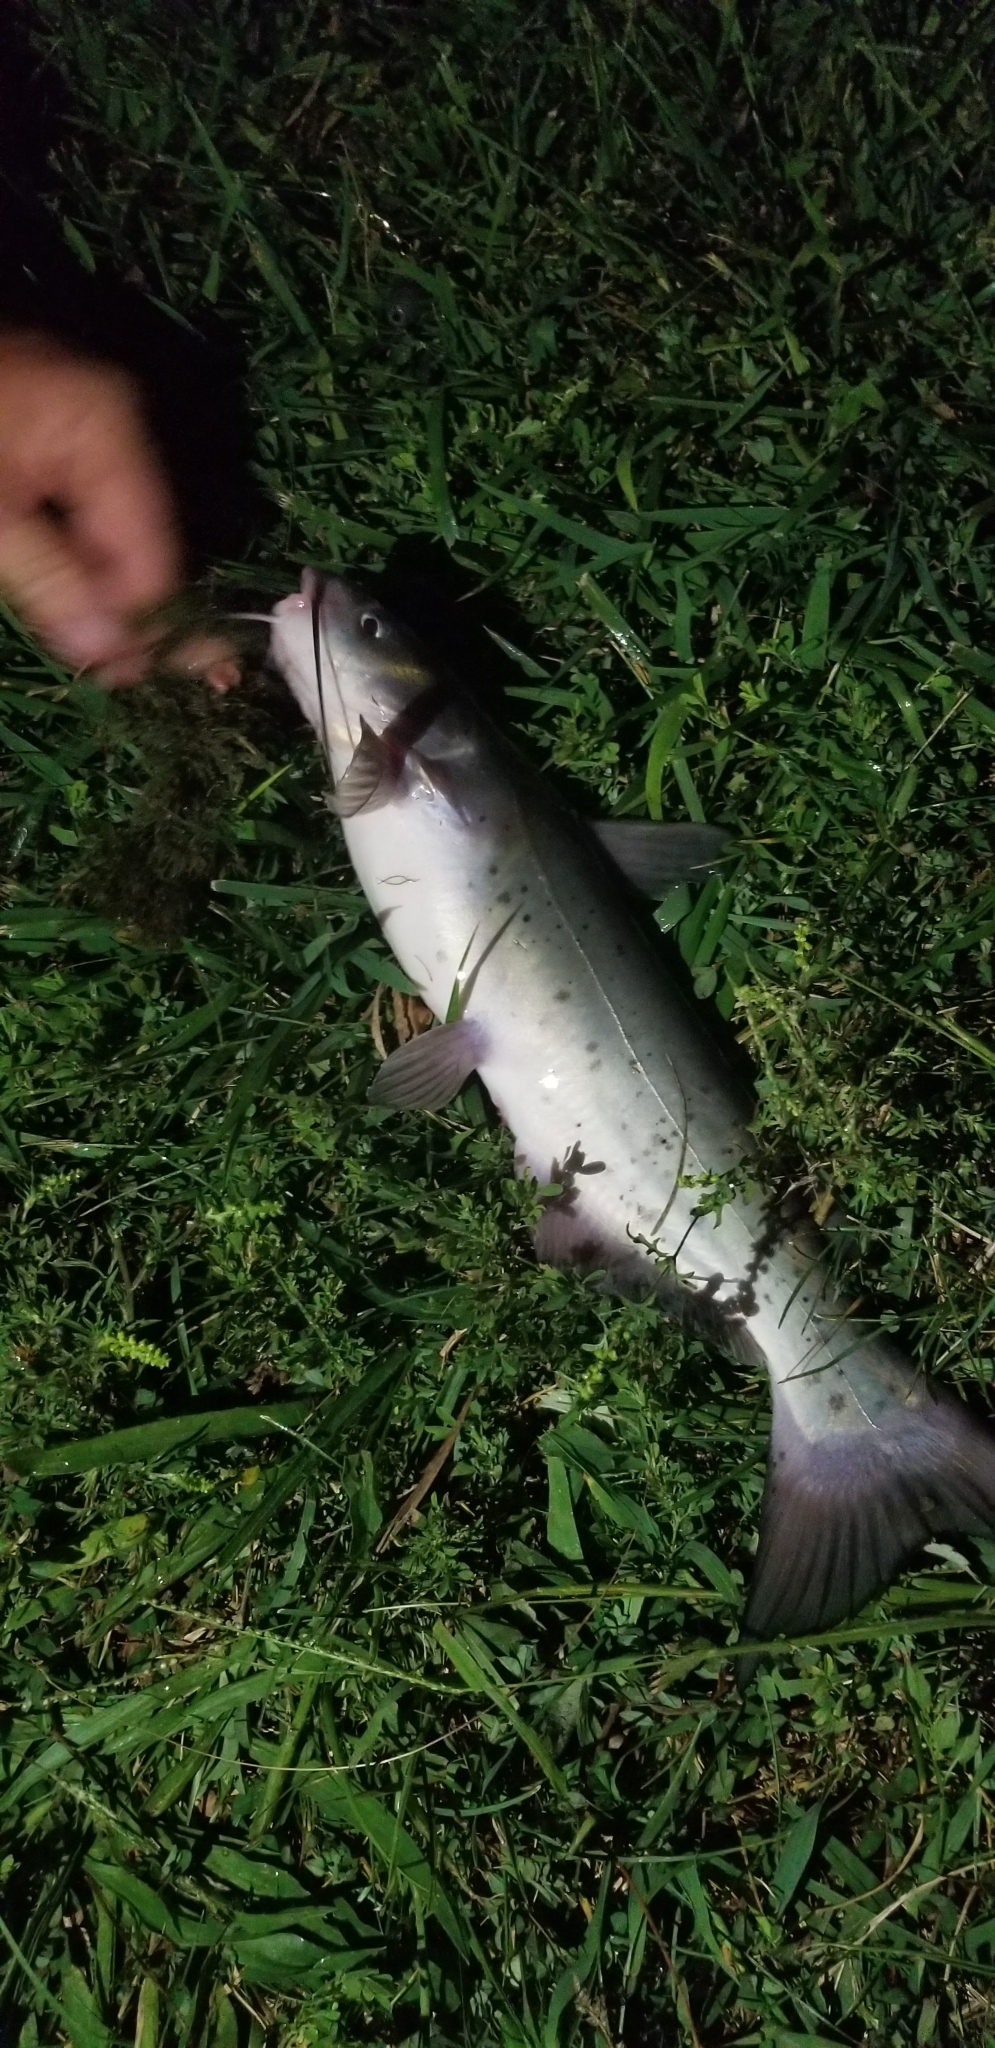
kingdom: Animalia
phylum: Chordata
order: Siluriformes
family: Ictaluridae
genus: Ictalurus
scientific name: Ictalurus punctatus
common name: Channel catfish
